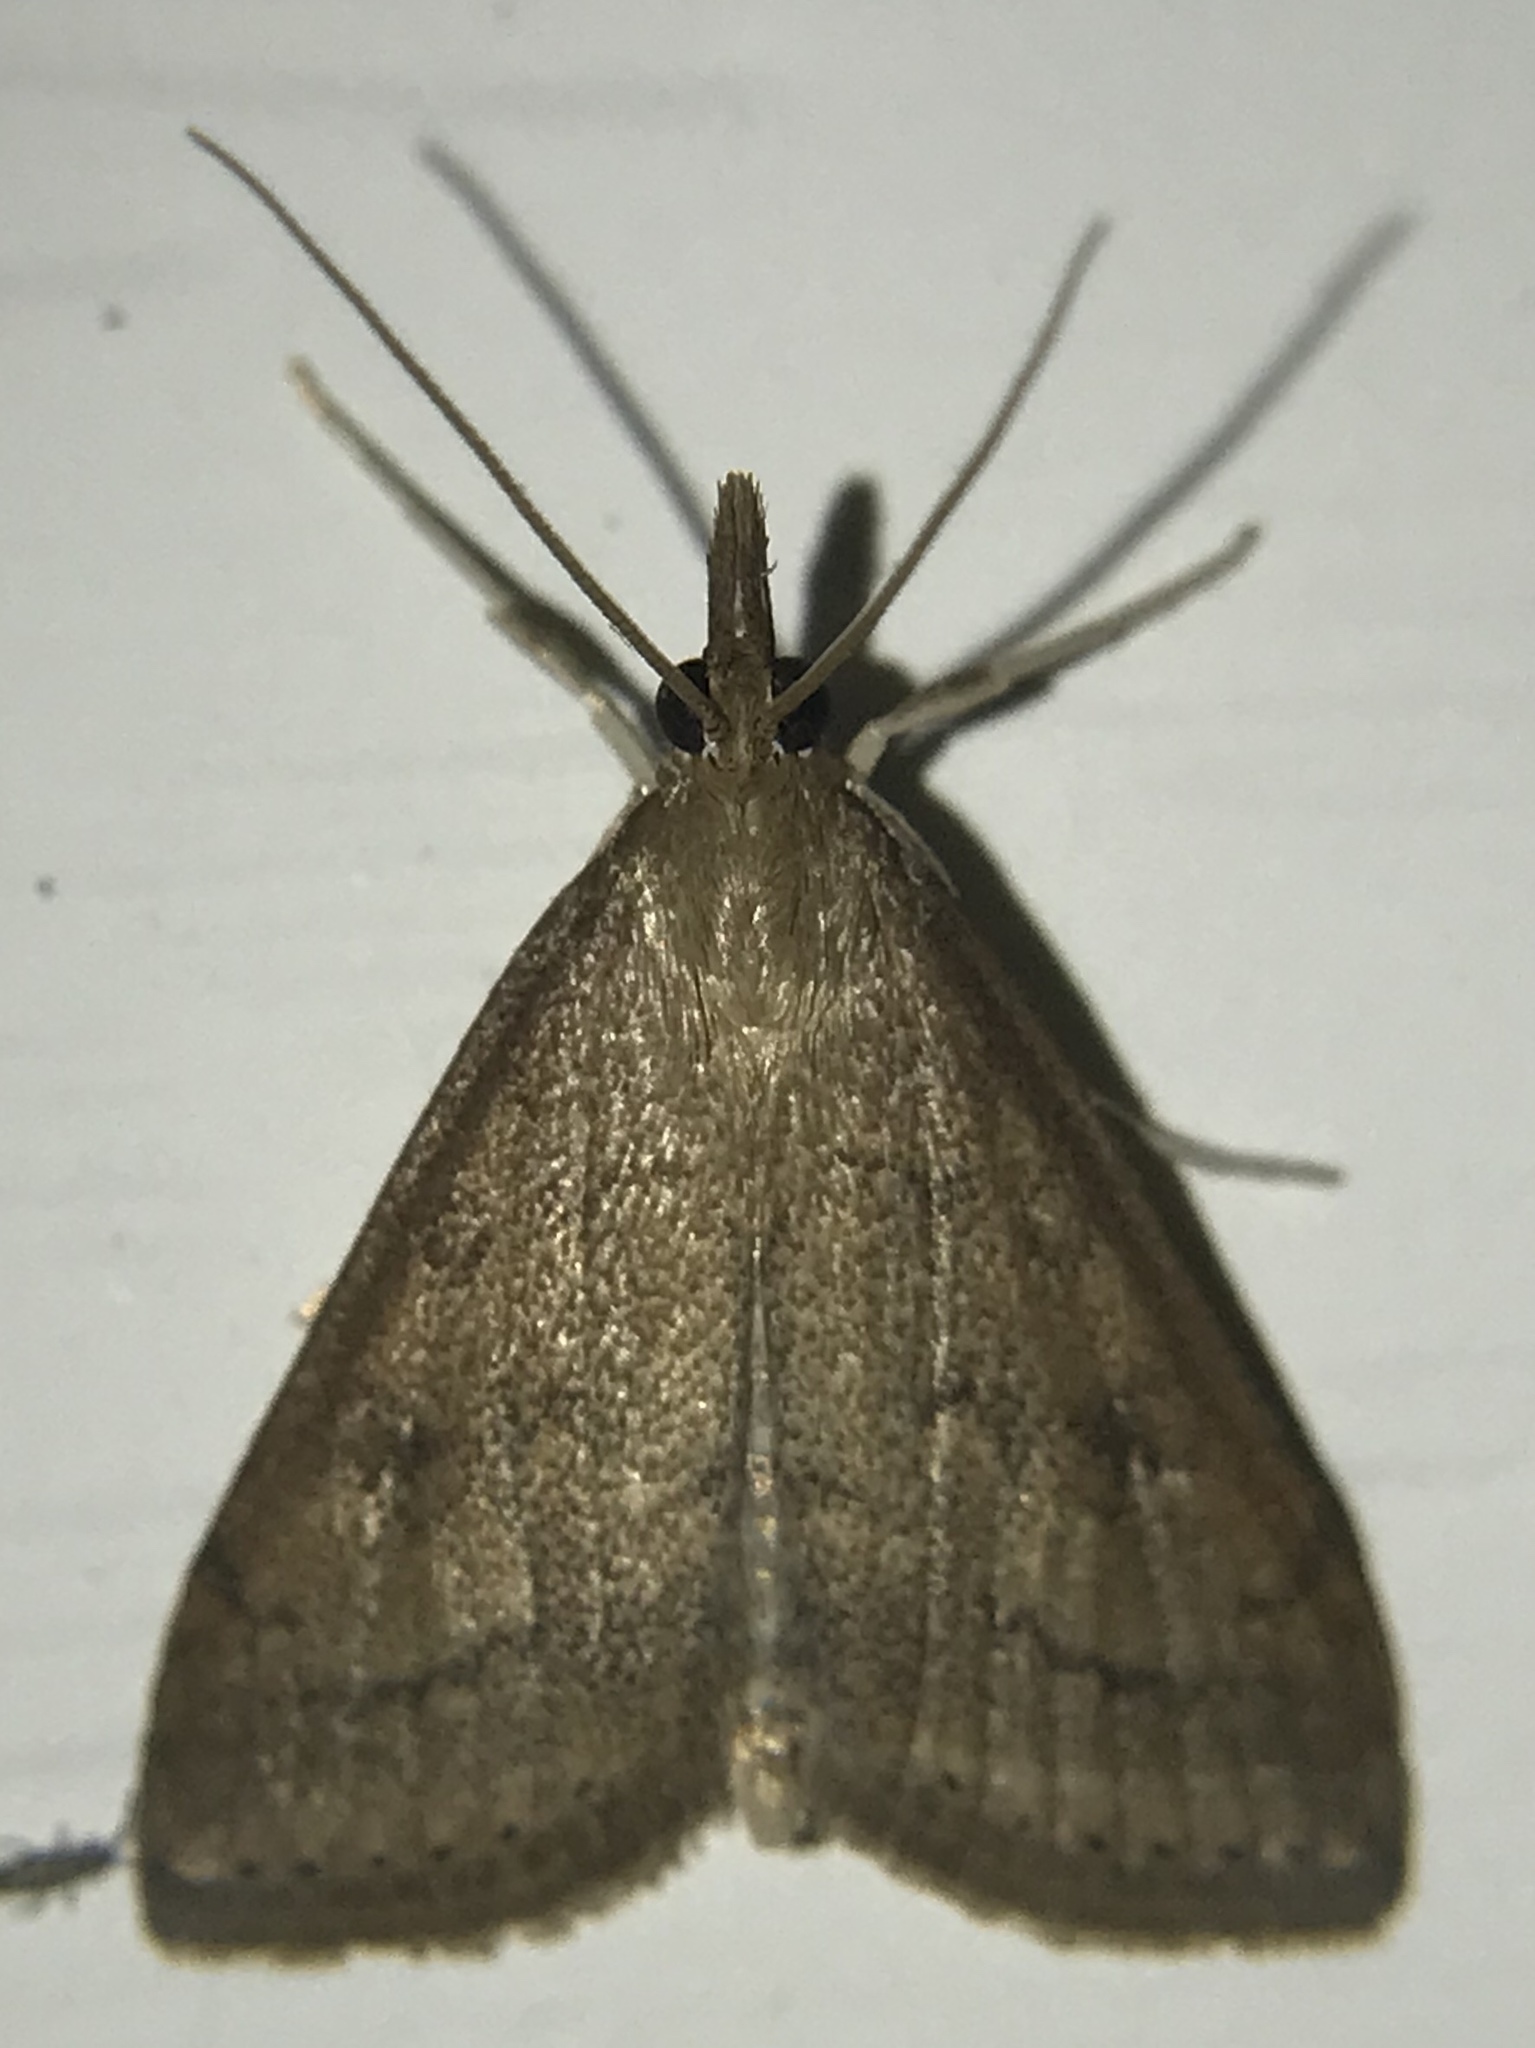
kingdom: Animalia
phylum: Arthropoda
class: Insecta
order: Lepidoptera
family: Crambidae
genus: Udea
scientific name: Udea rubigalis
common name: Celery leaftier moth
